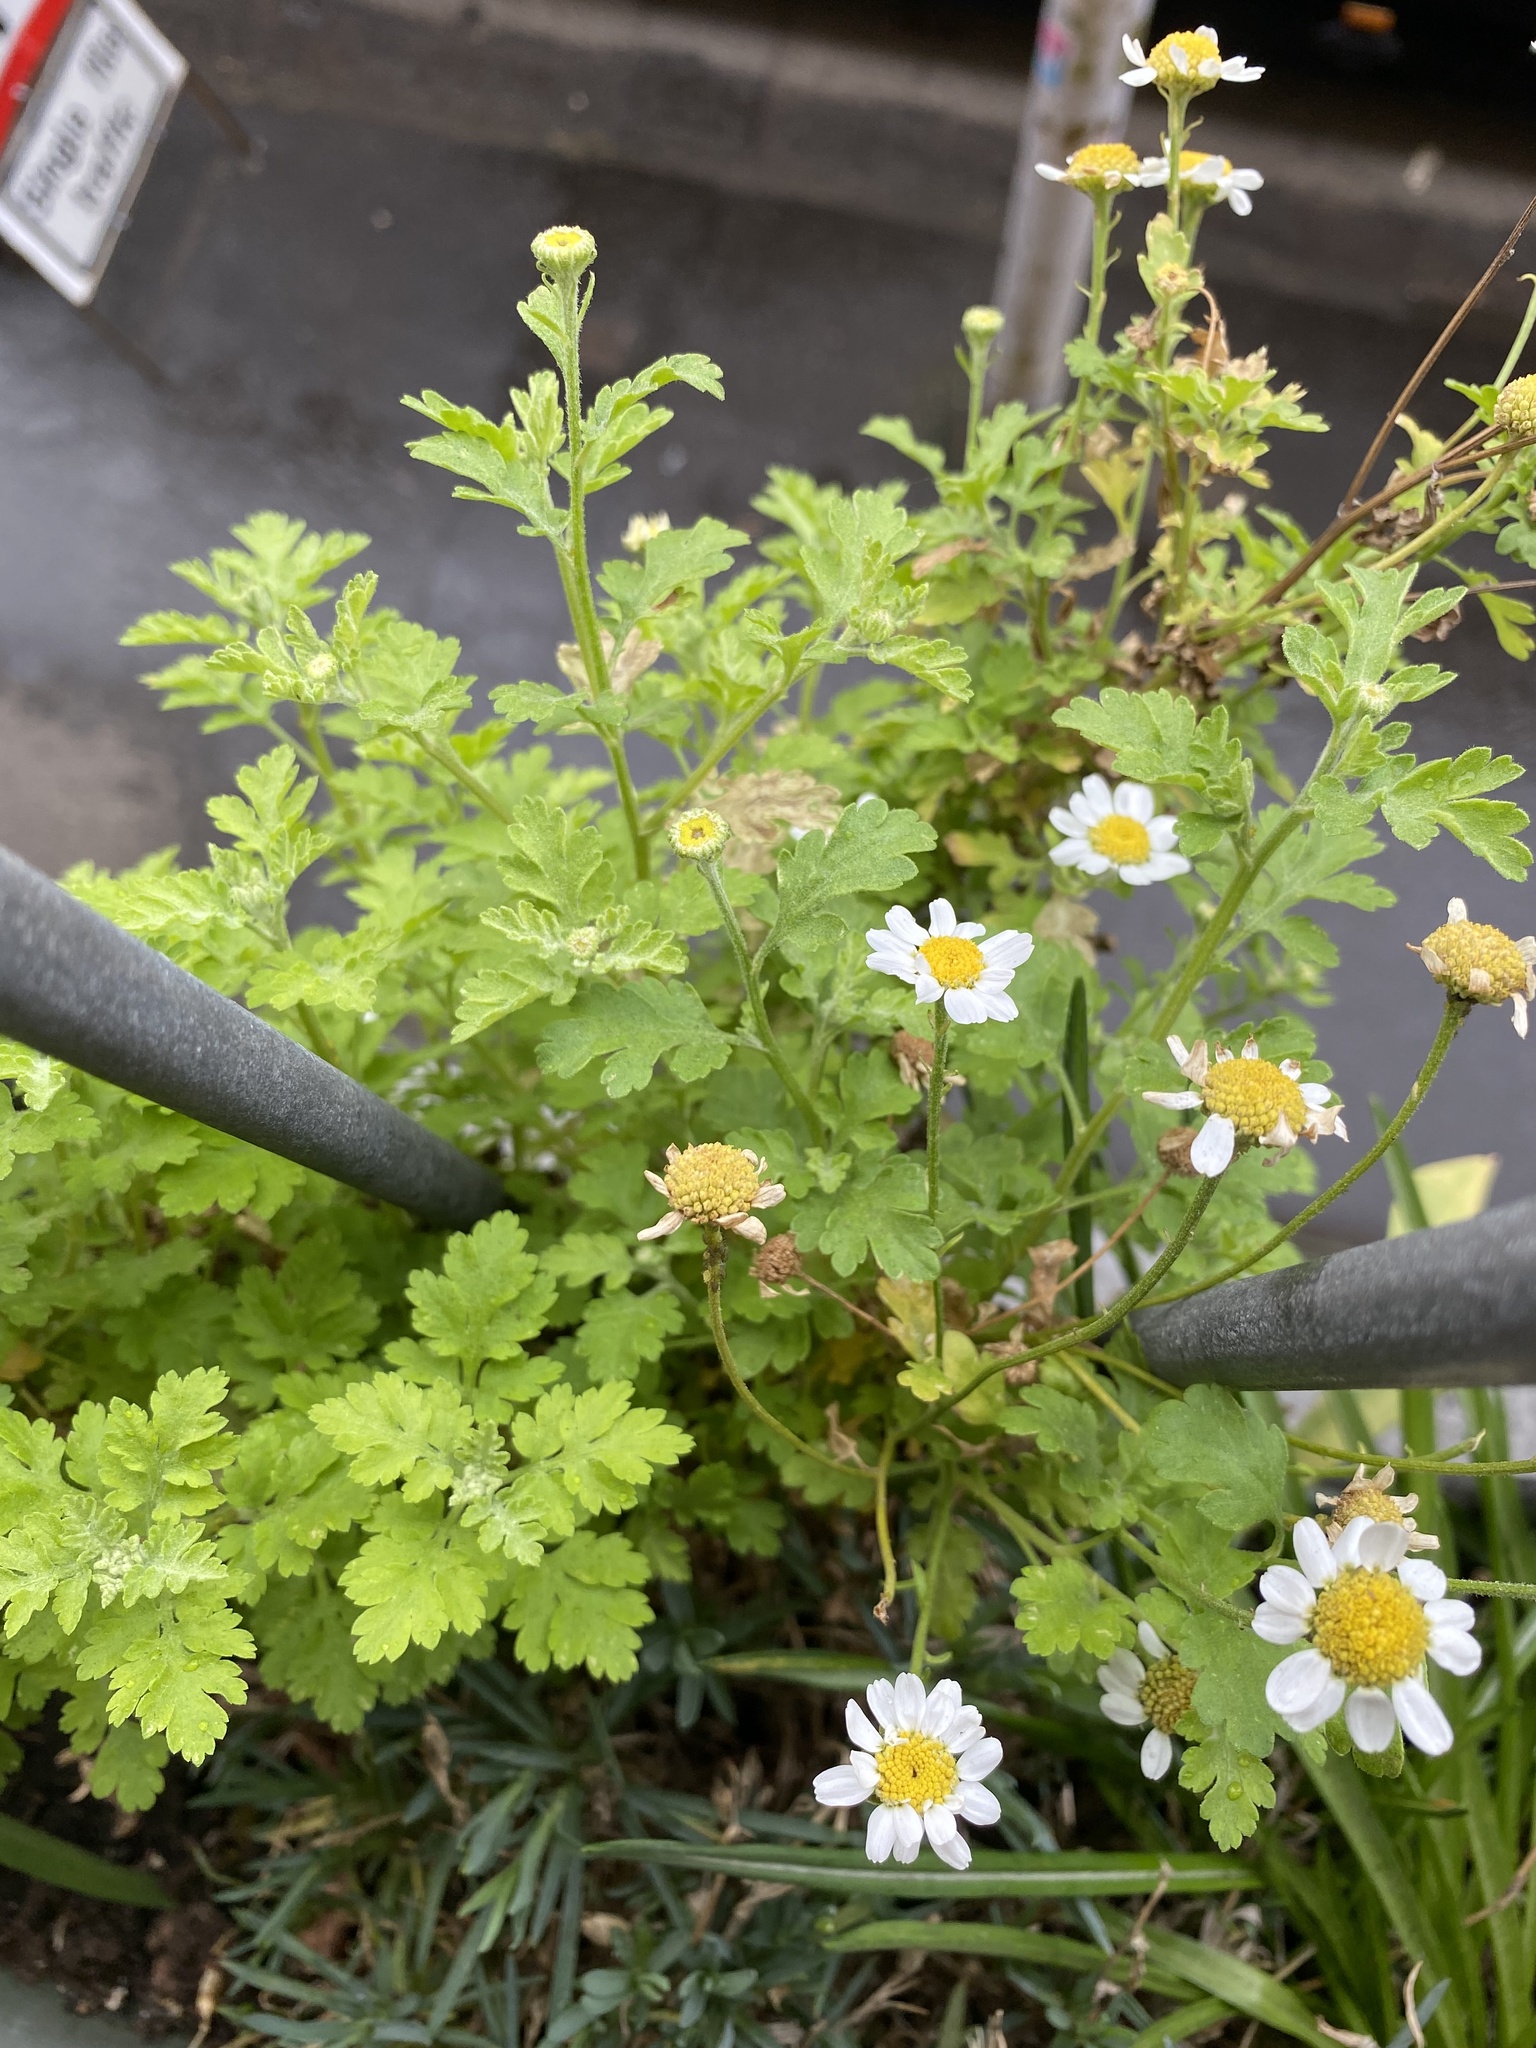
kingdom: Plantae
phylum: Tracheophyta
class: Magnoliopsida
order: Asterales
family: Asteraceae
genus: Tanacetum
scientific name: Tanacetum parthenium
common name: Feverfew
